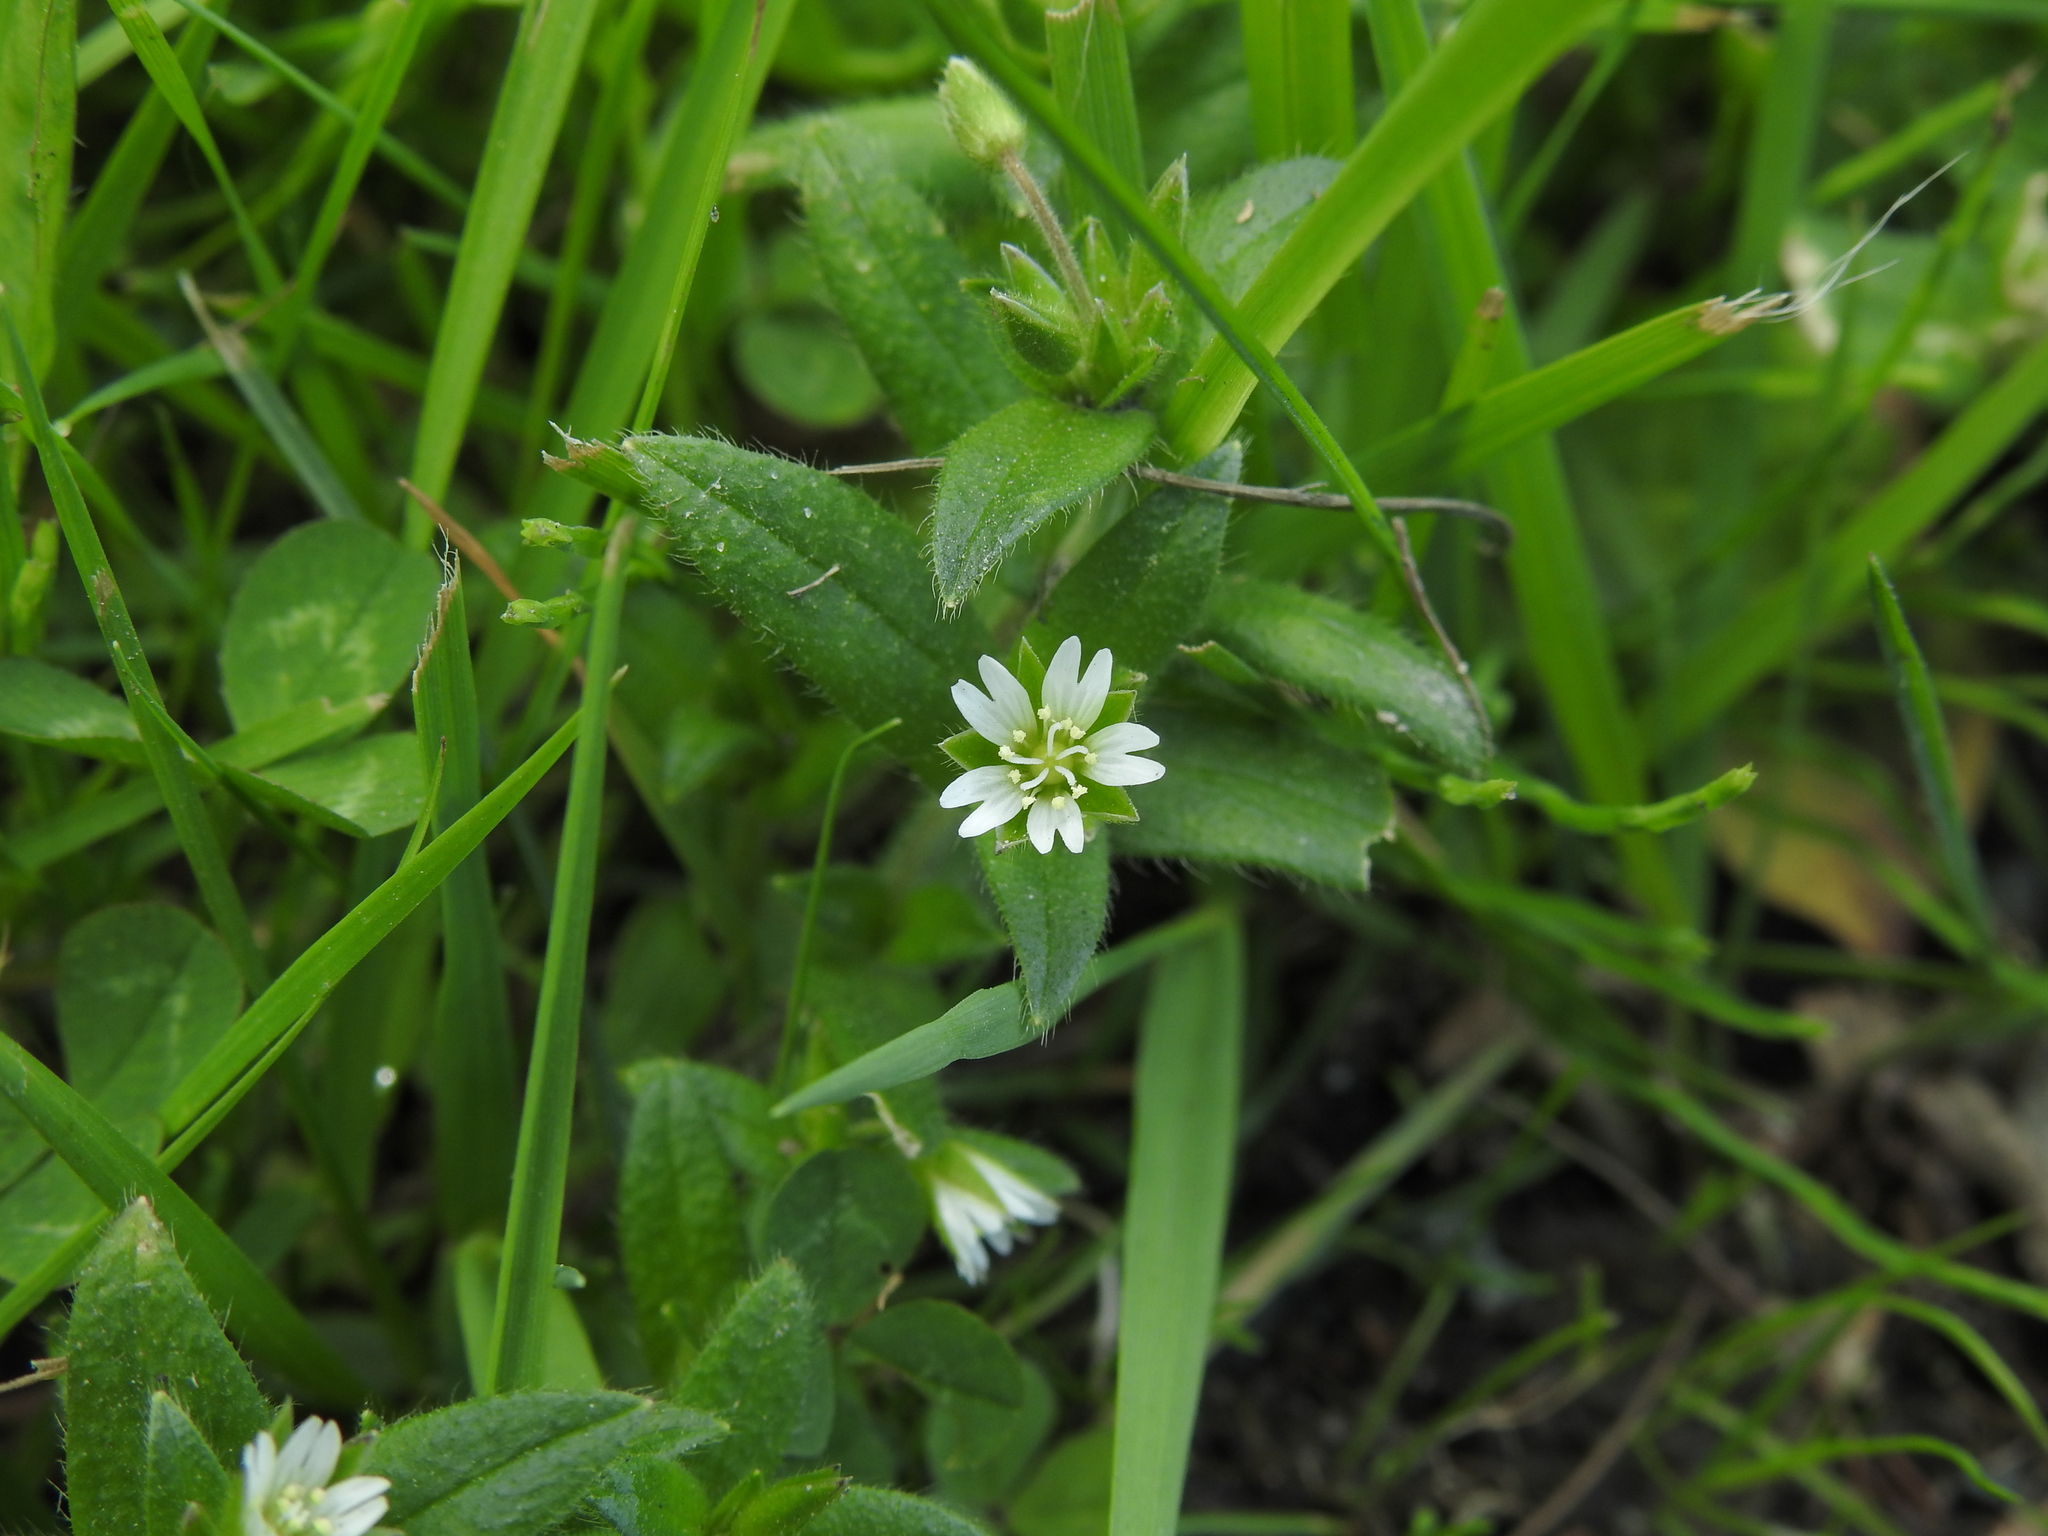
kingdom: Plantae
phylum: Tracheophyta
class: Magnoliopsida
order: Caryophyllales
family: Caryophyllaceae
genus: Cerastium
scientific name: Cerastium glomeratum
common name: Sticky chickweed
